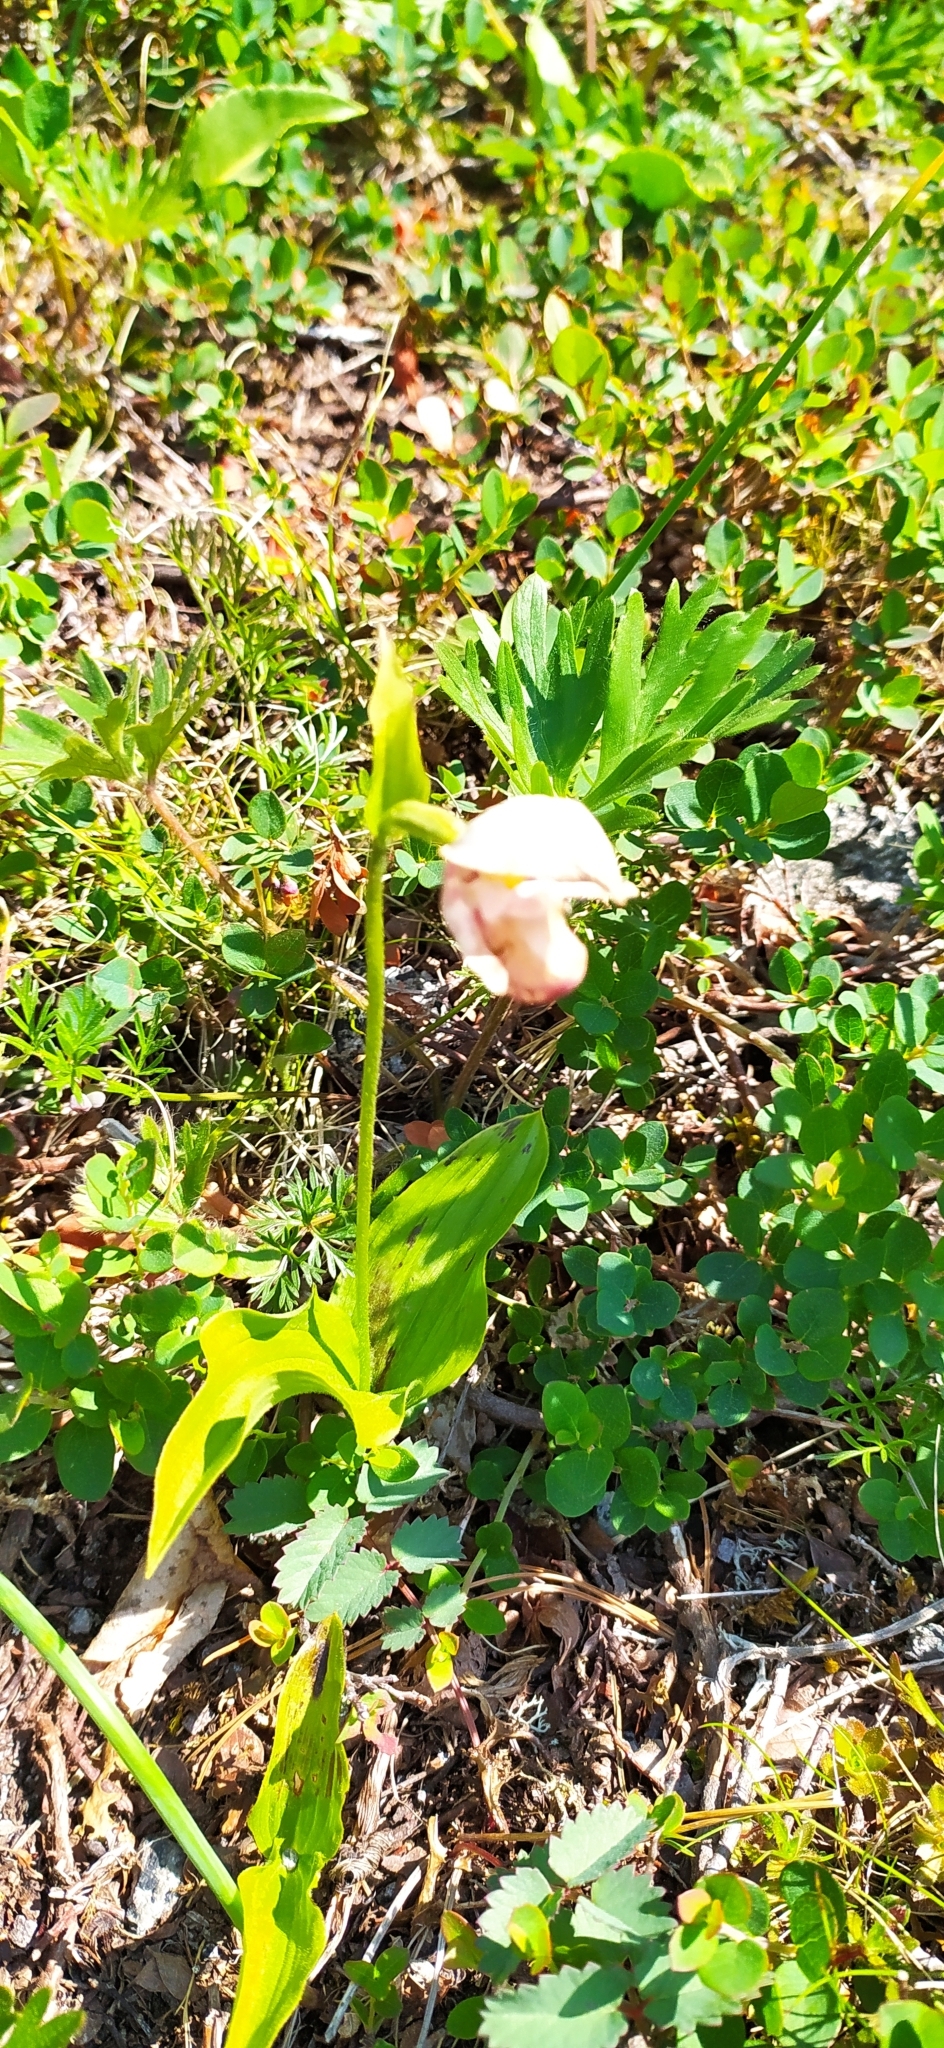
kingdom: Plantae
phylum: Tracheophyta
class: Liliopsida
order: Asparagales
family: Orchidaceae
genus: Cypripedium
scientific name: Cypripedium guttatum
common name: Pink lady slipper
